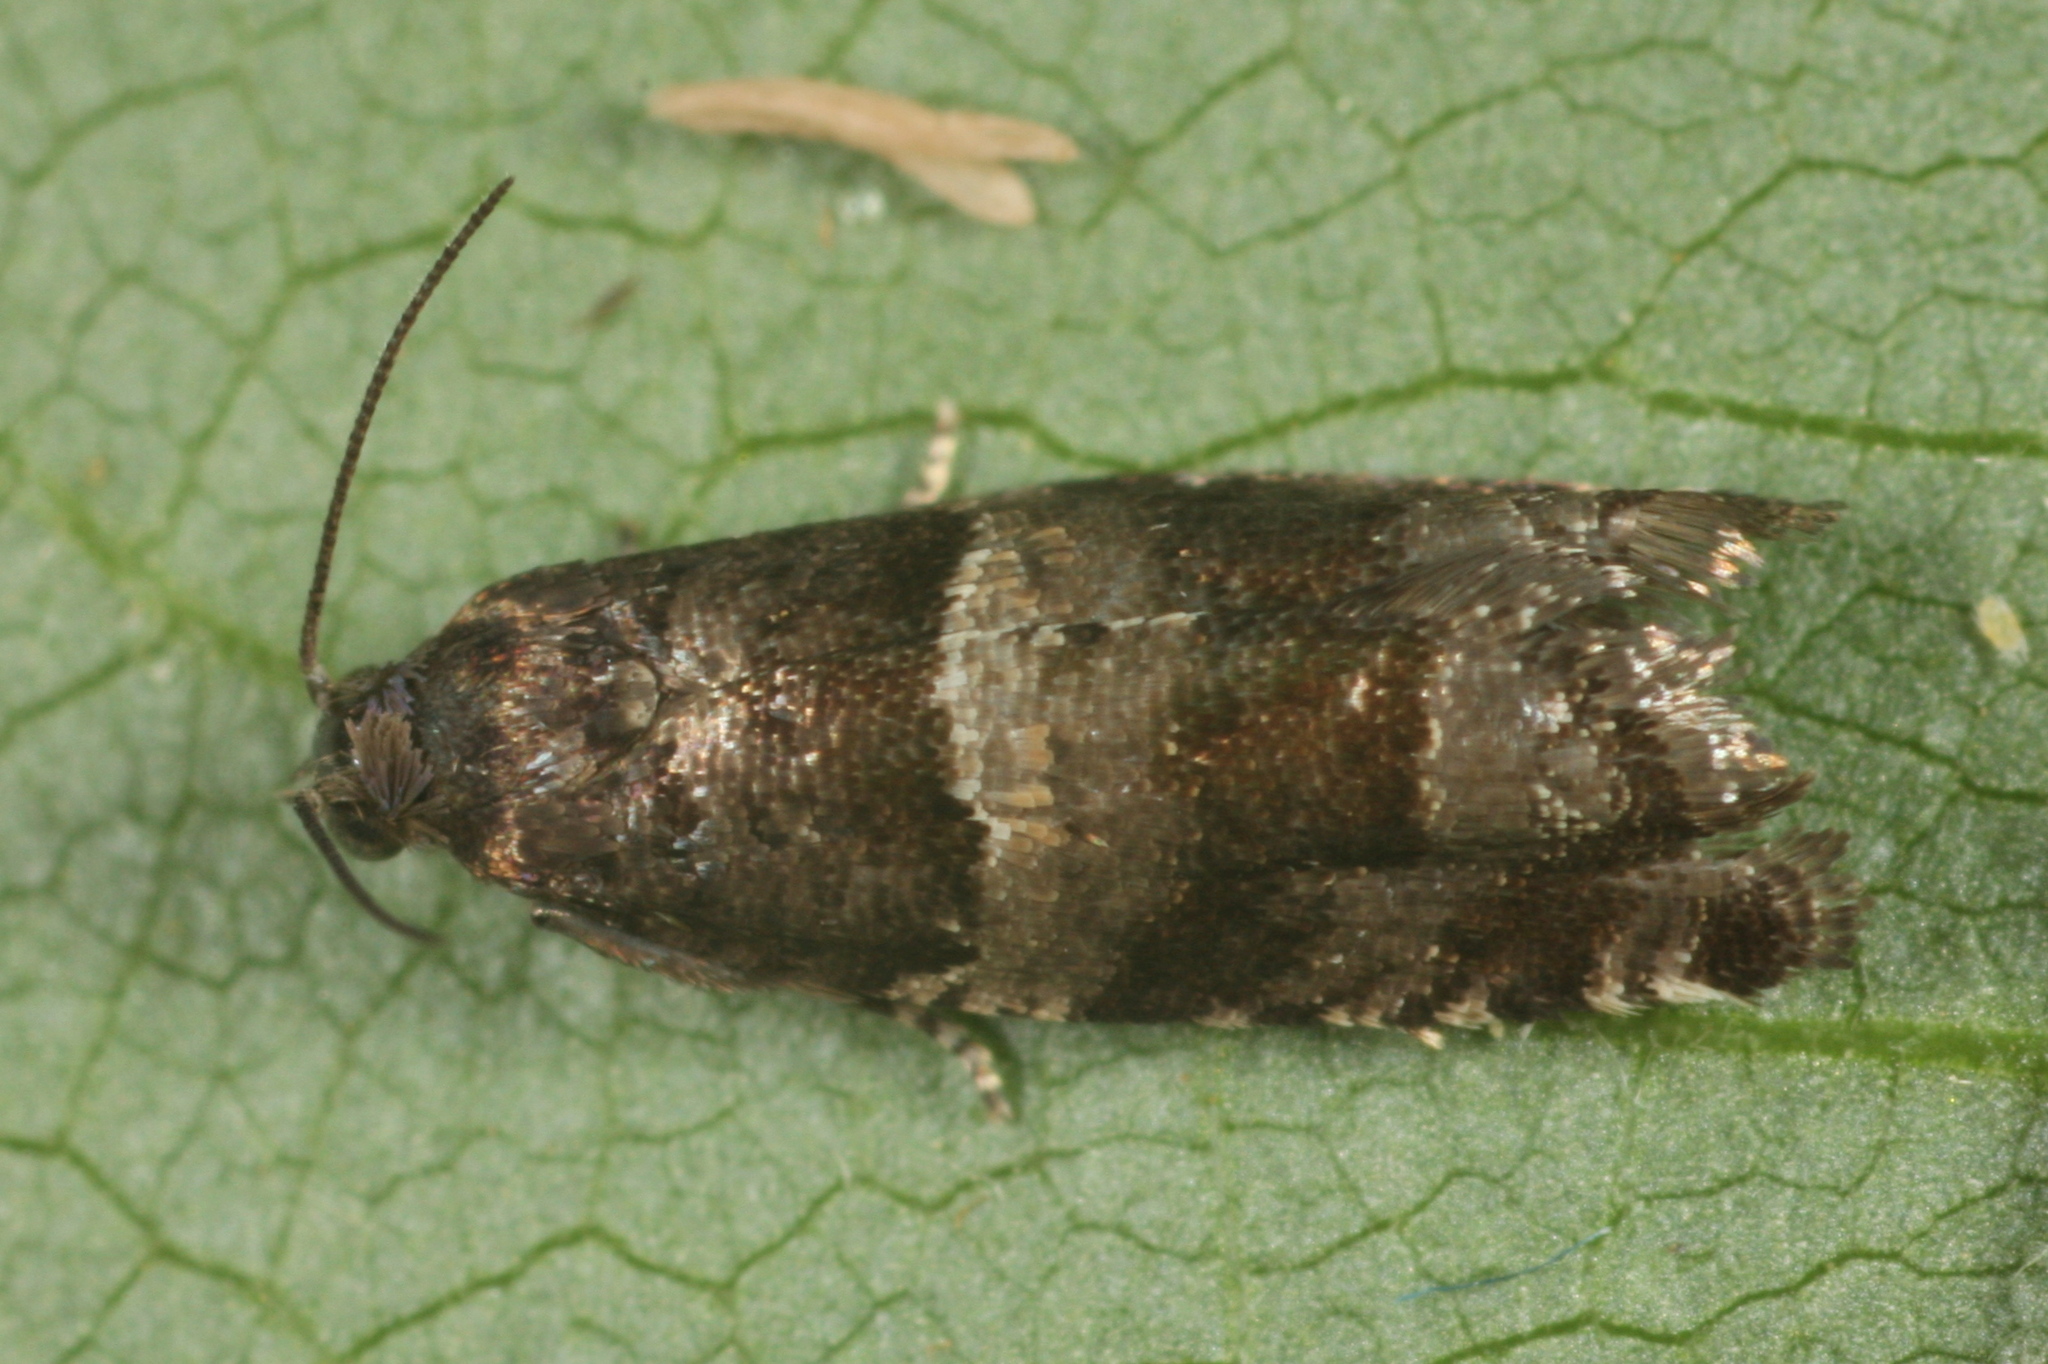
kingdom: Animalia
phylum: Arthropoda
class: Insecta
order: Lepidoptera
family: Tortricidae
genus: Rhopobota
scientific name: Rhopobota myrtillana
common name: Bilberry bell
